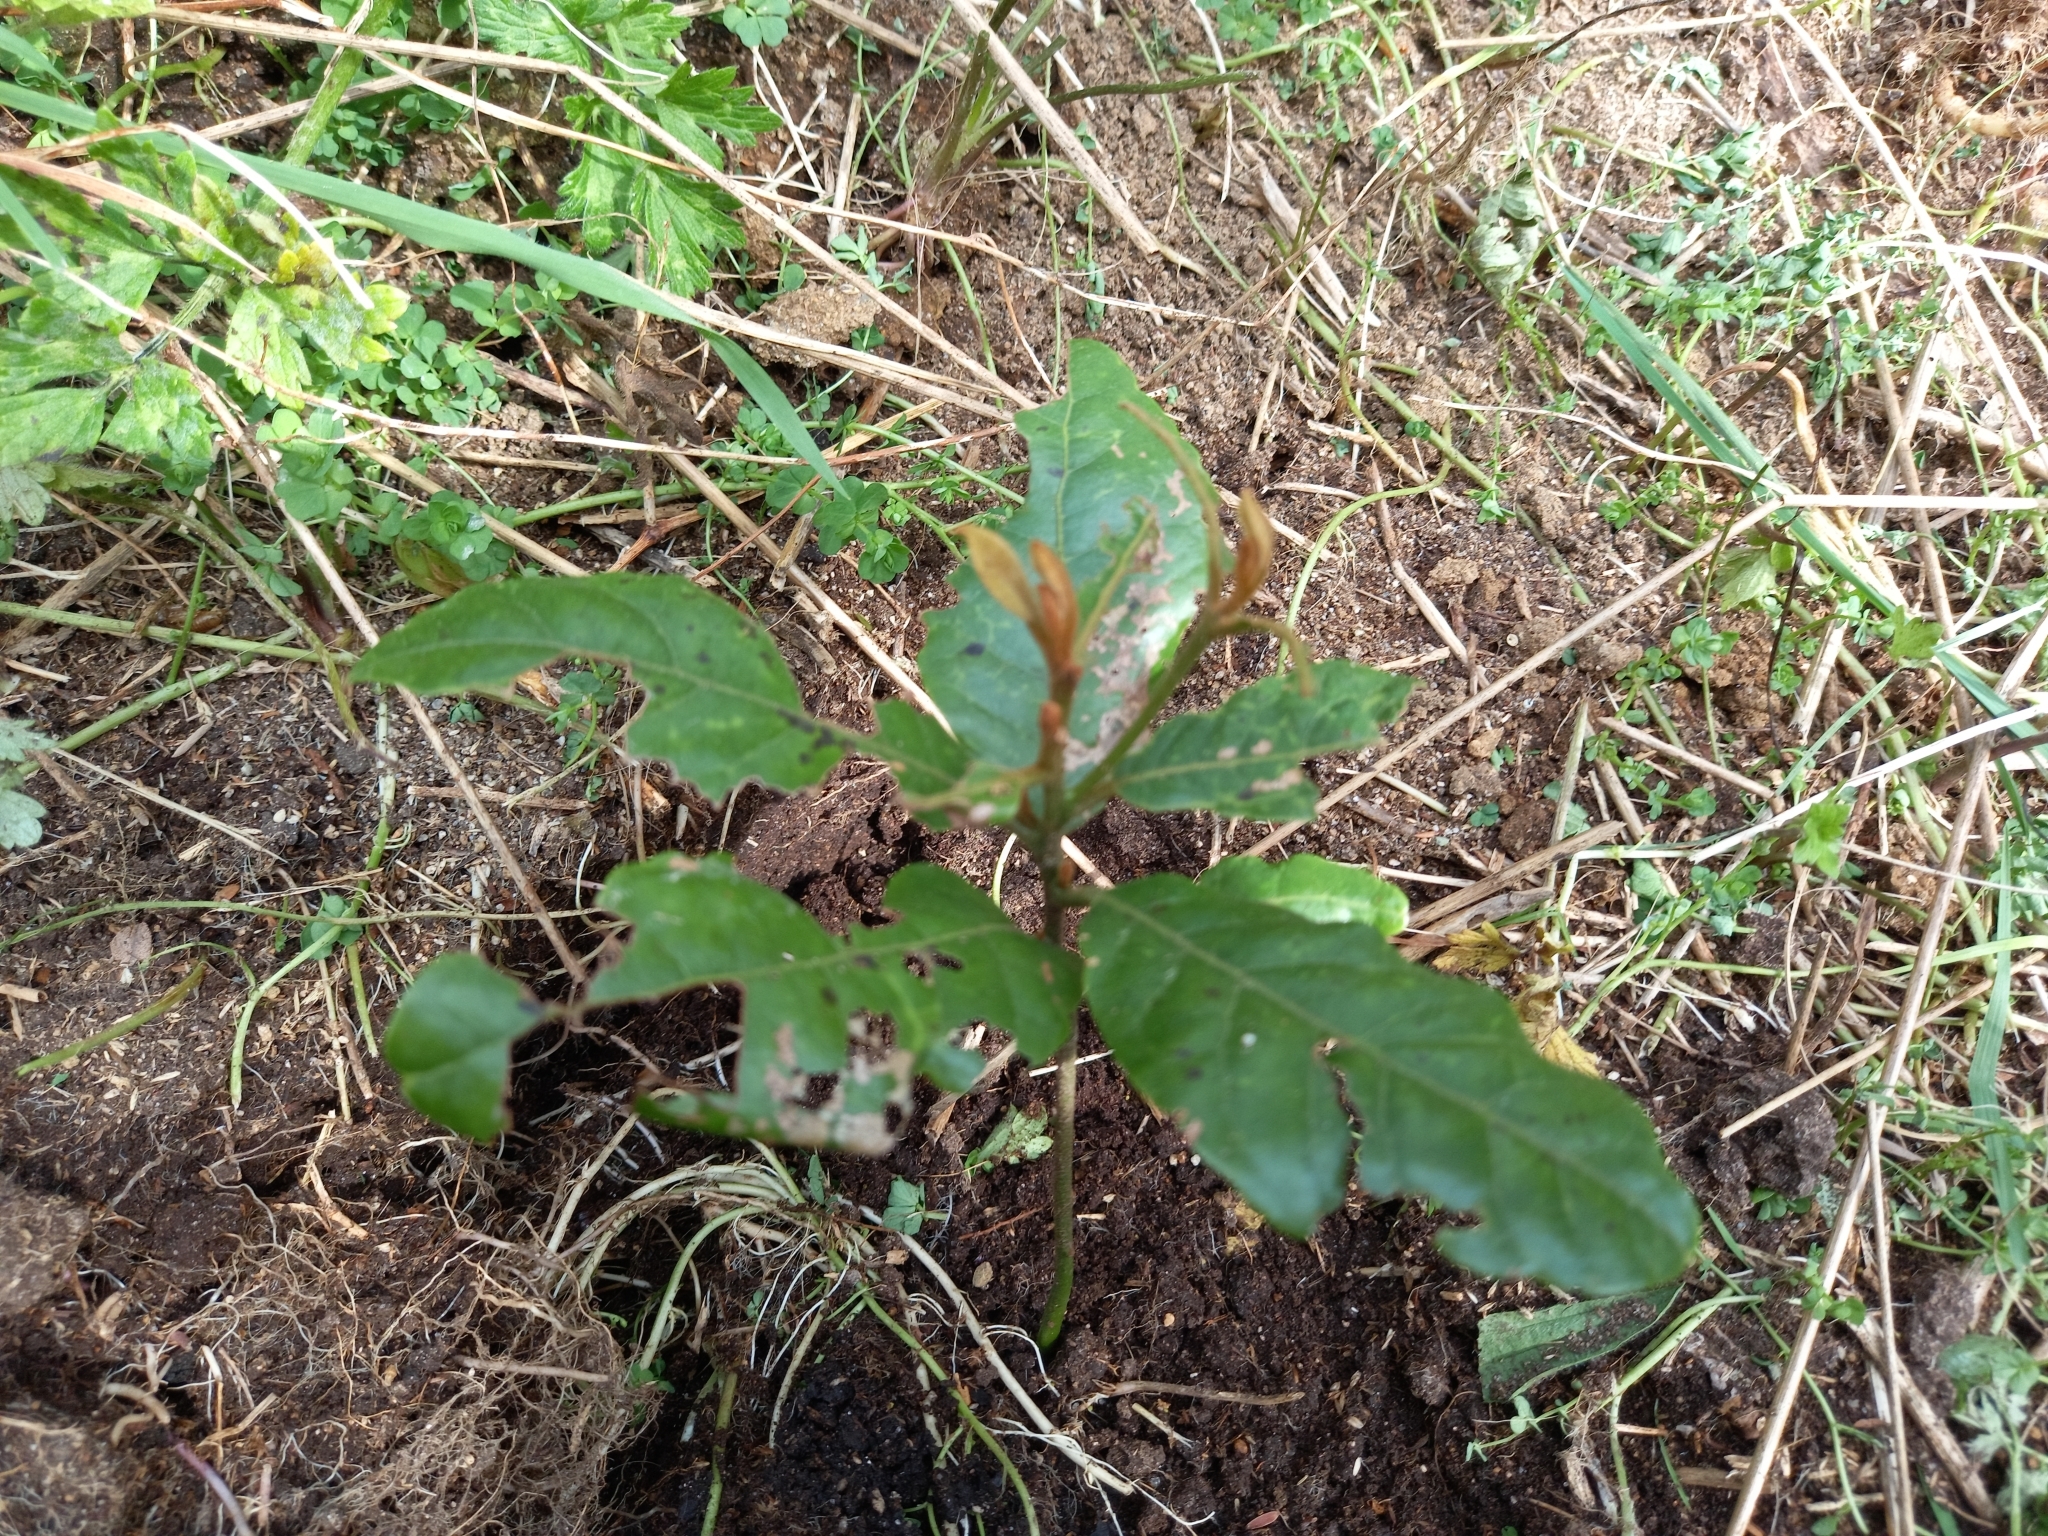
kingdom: Plantae
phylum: Tracheophyta
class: Magnoliopsida
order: Laurales
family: Lauraceae
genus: Beilschmiedia
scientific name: Beilschmiedia tarairi
